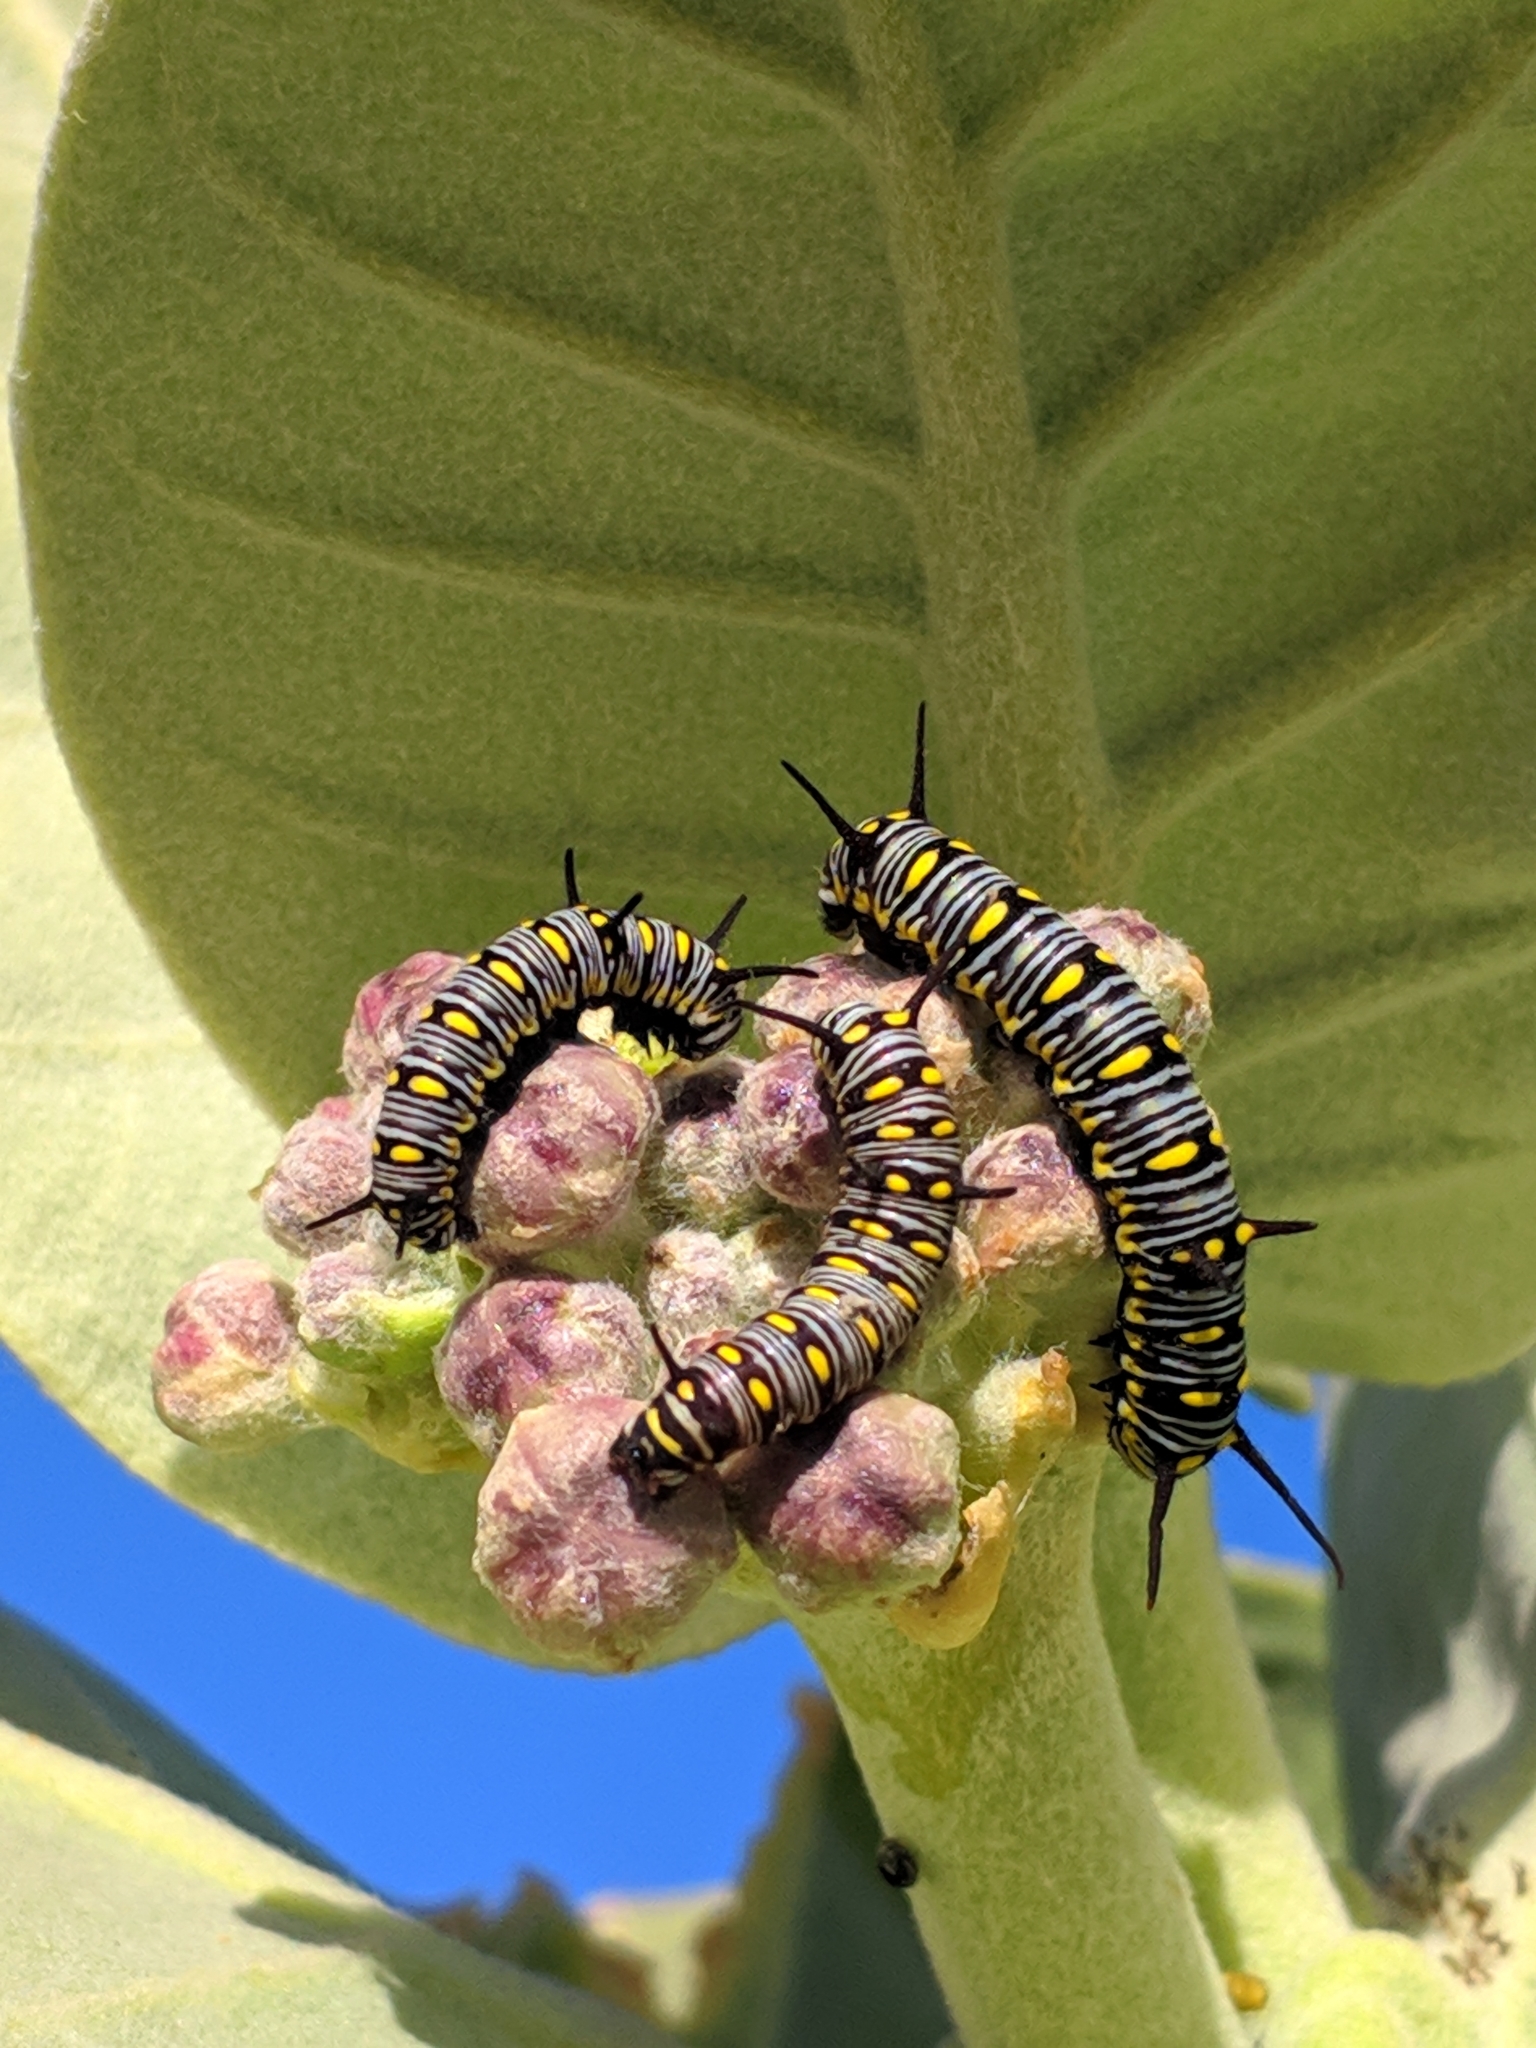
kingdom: Plantae
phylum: Tracheophyta
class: Magnoliopsida
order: Gentianales
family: Apocynaceae
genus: Calotropis
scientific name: Calotropis procera
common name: Roostertree
